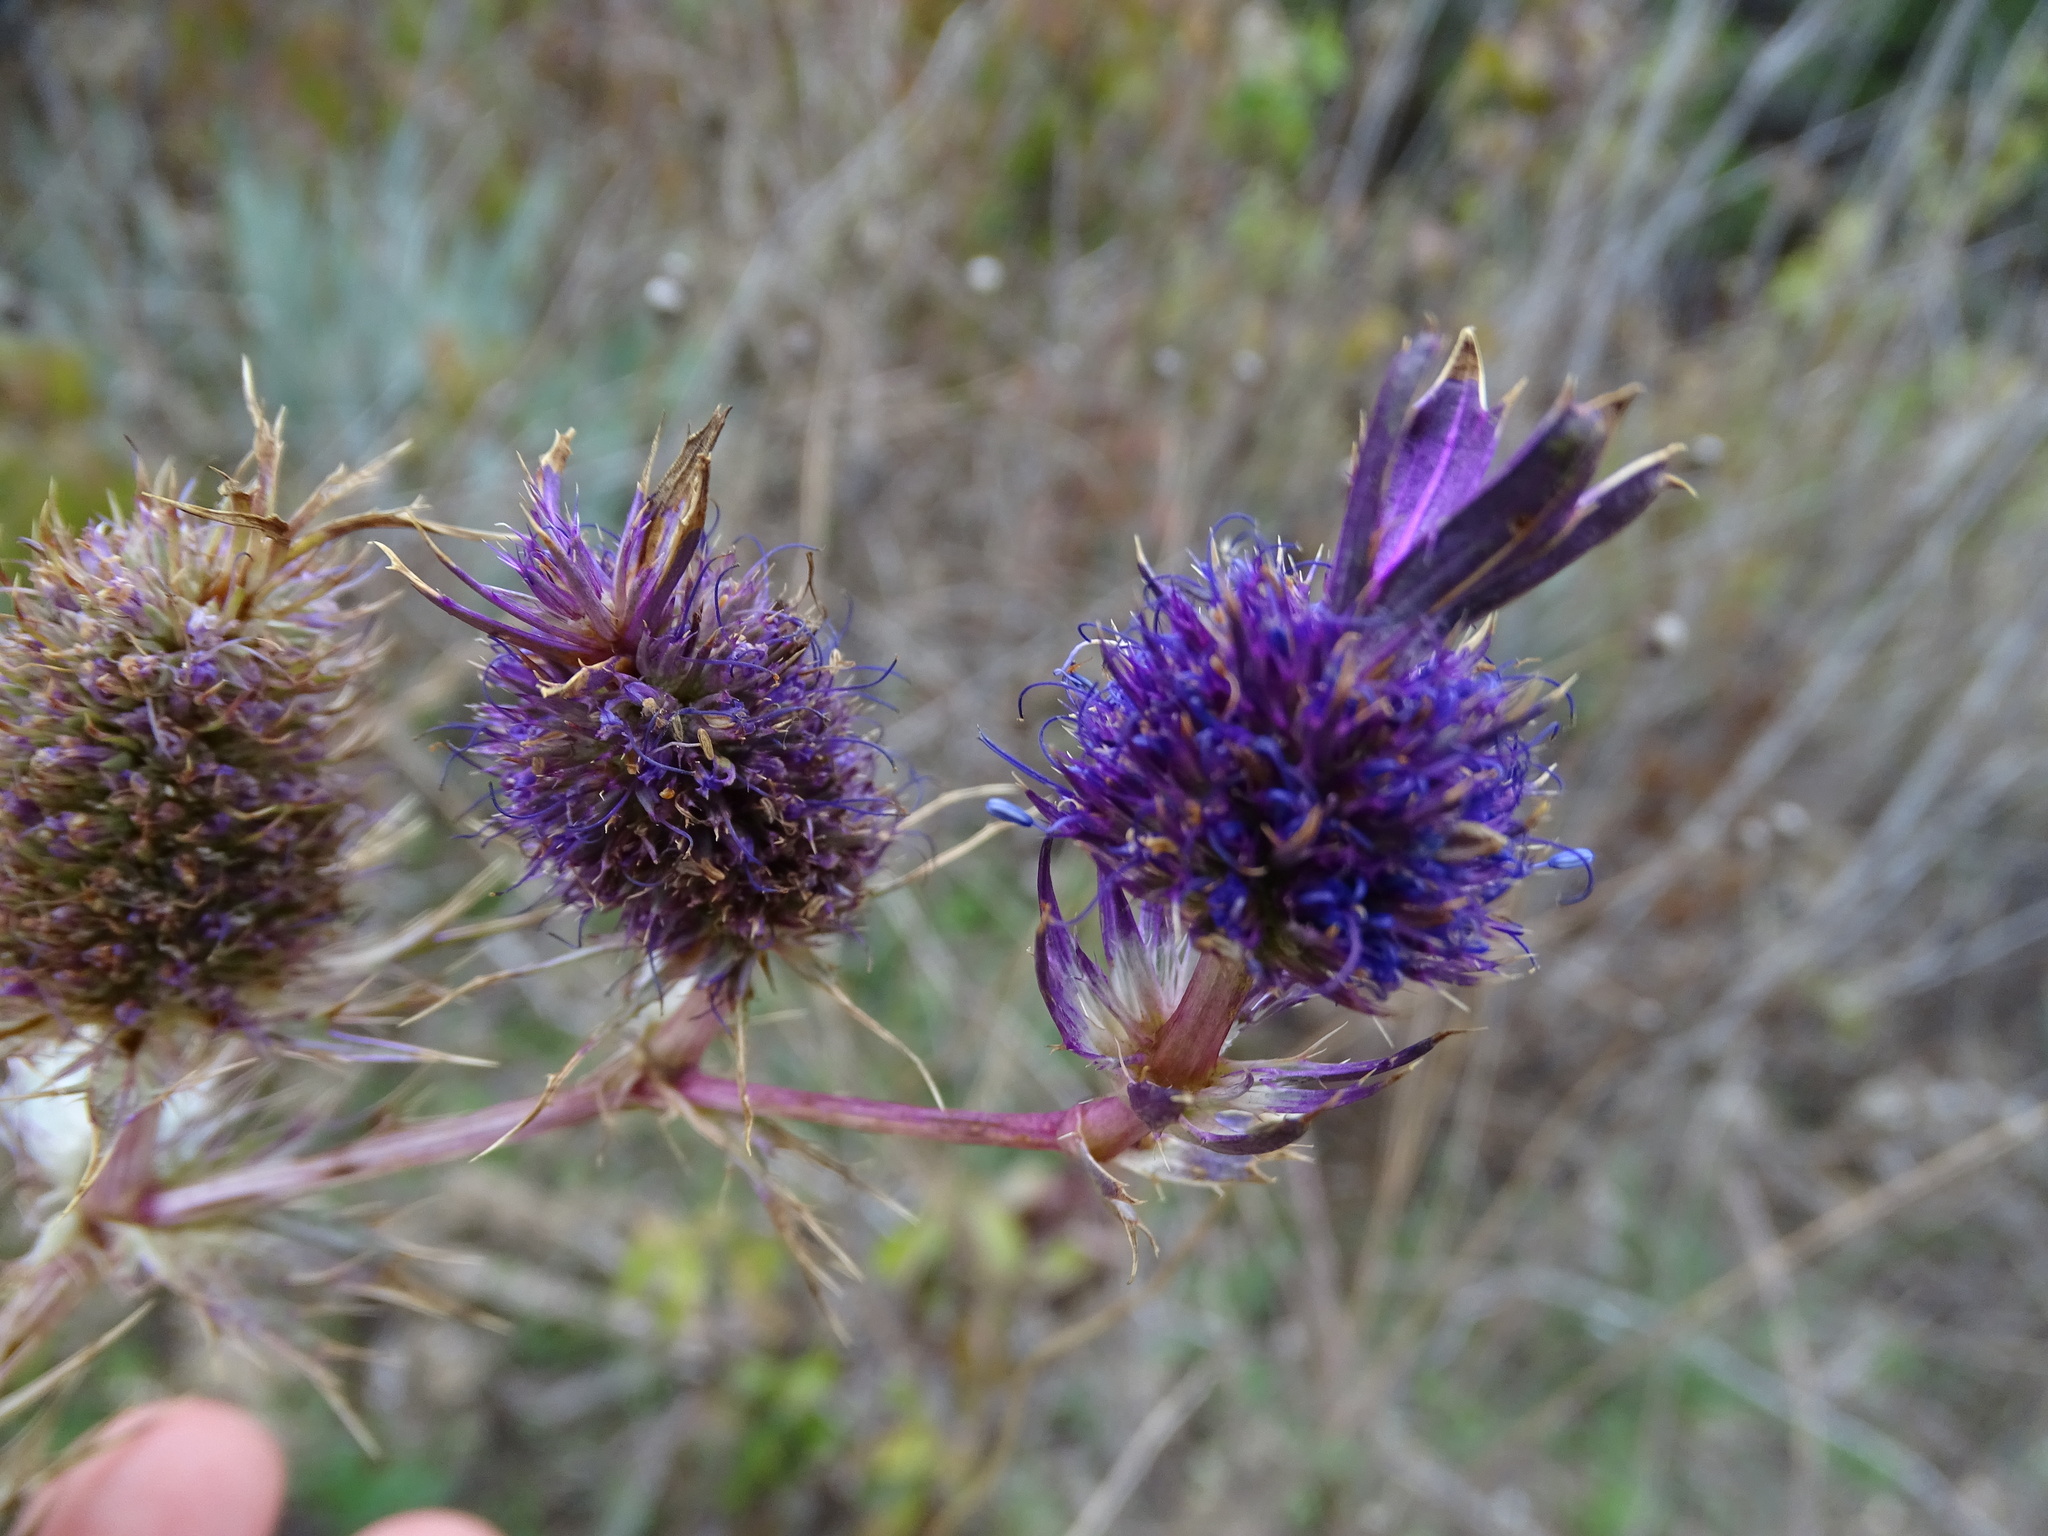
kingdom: Plantae
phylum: Tracheophyta
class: Magnoliopsida
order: Apiales
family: Apiaceae
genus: Eryngium
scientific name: Eryngium leavenworthii
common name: Leavenworth's eryngo
